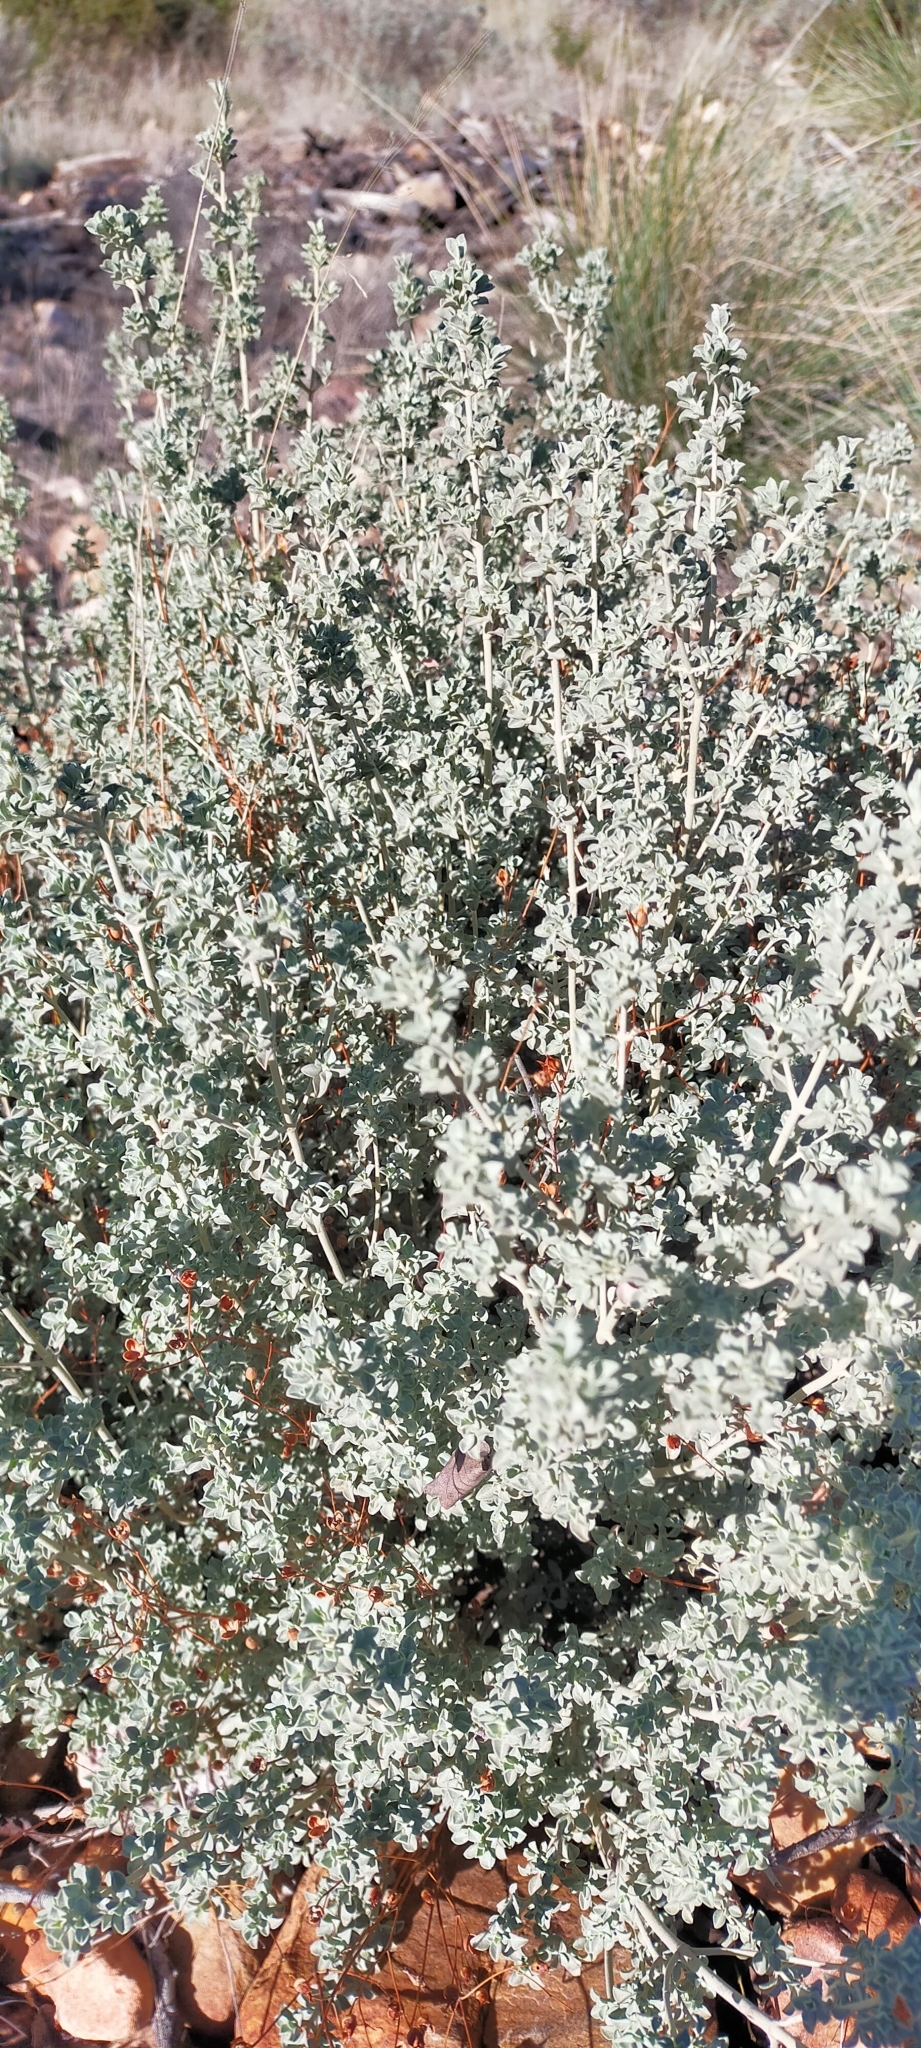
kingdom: Plantae
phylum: Tracheophyta
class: Magnoliopsida
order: Malvales
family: Cistaceae
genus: Cistus
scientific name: Cistus ocymoides
